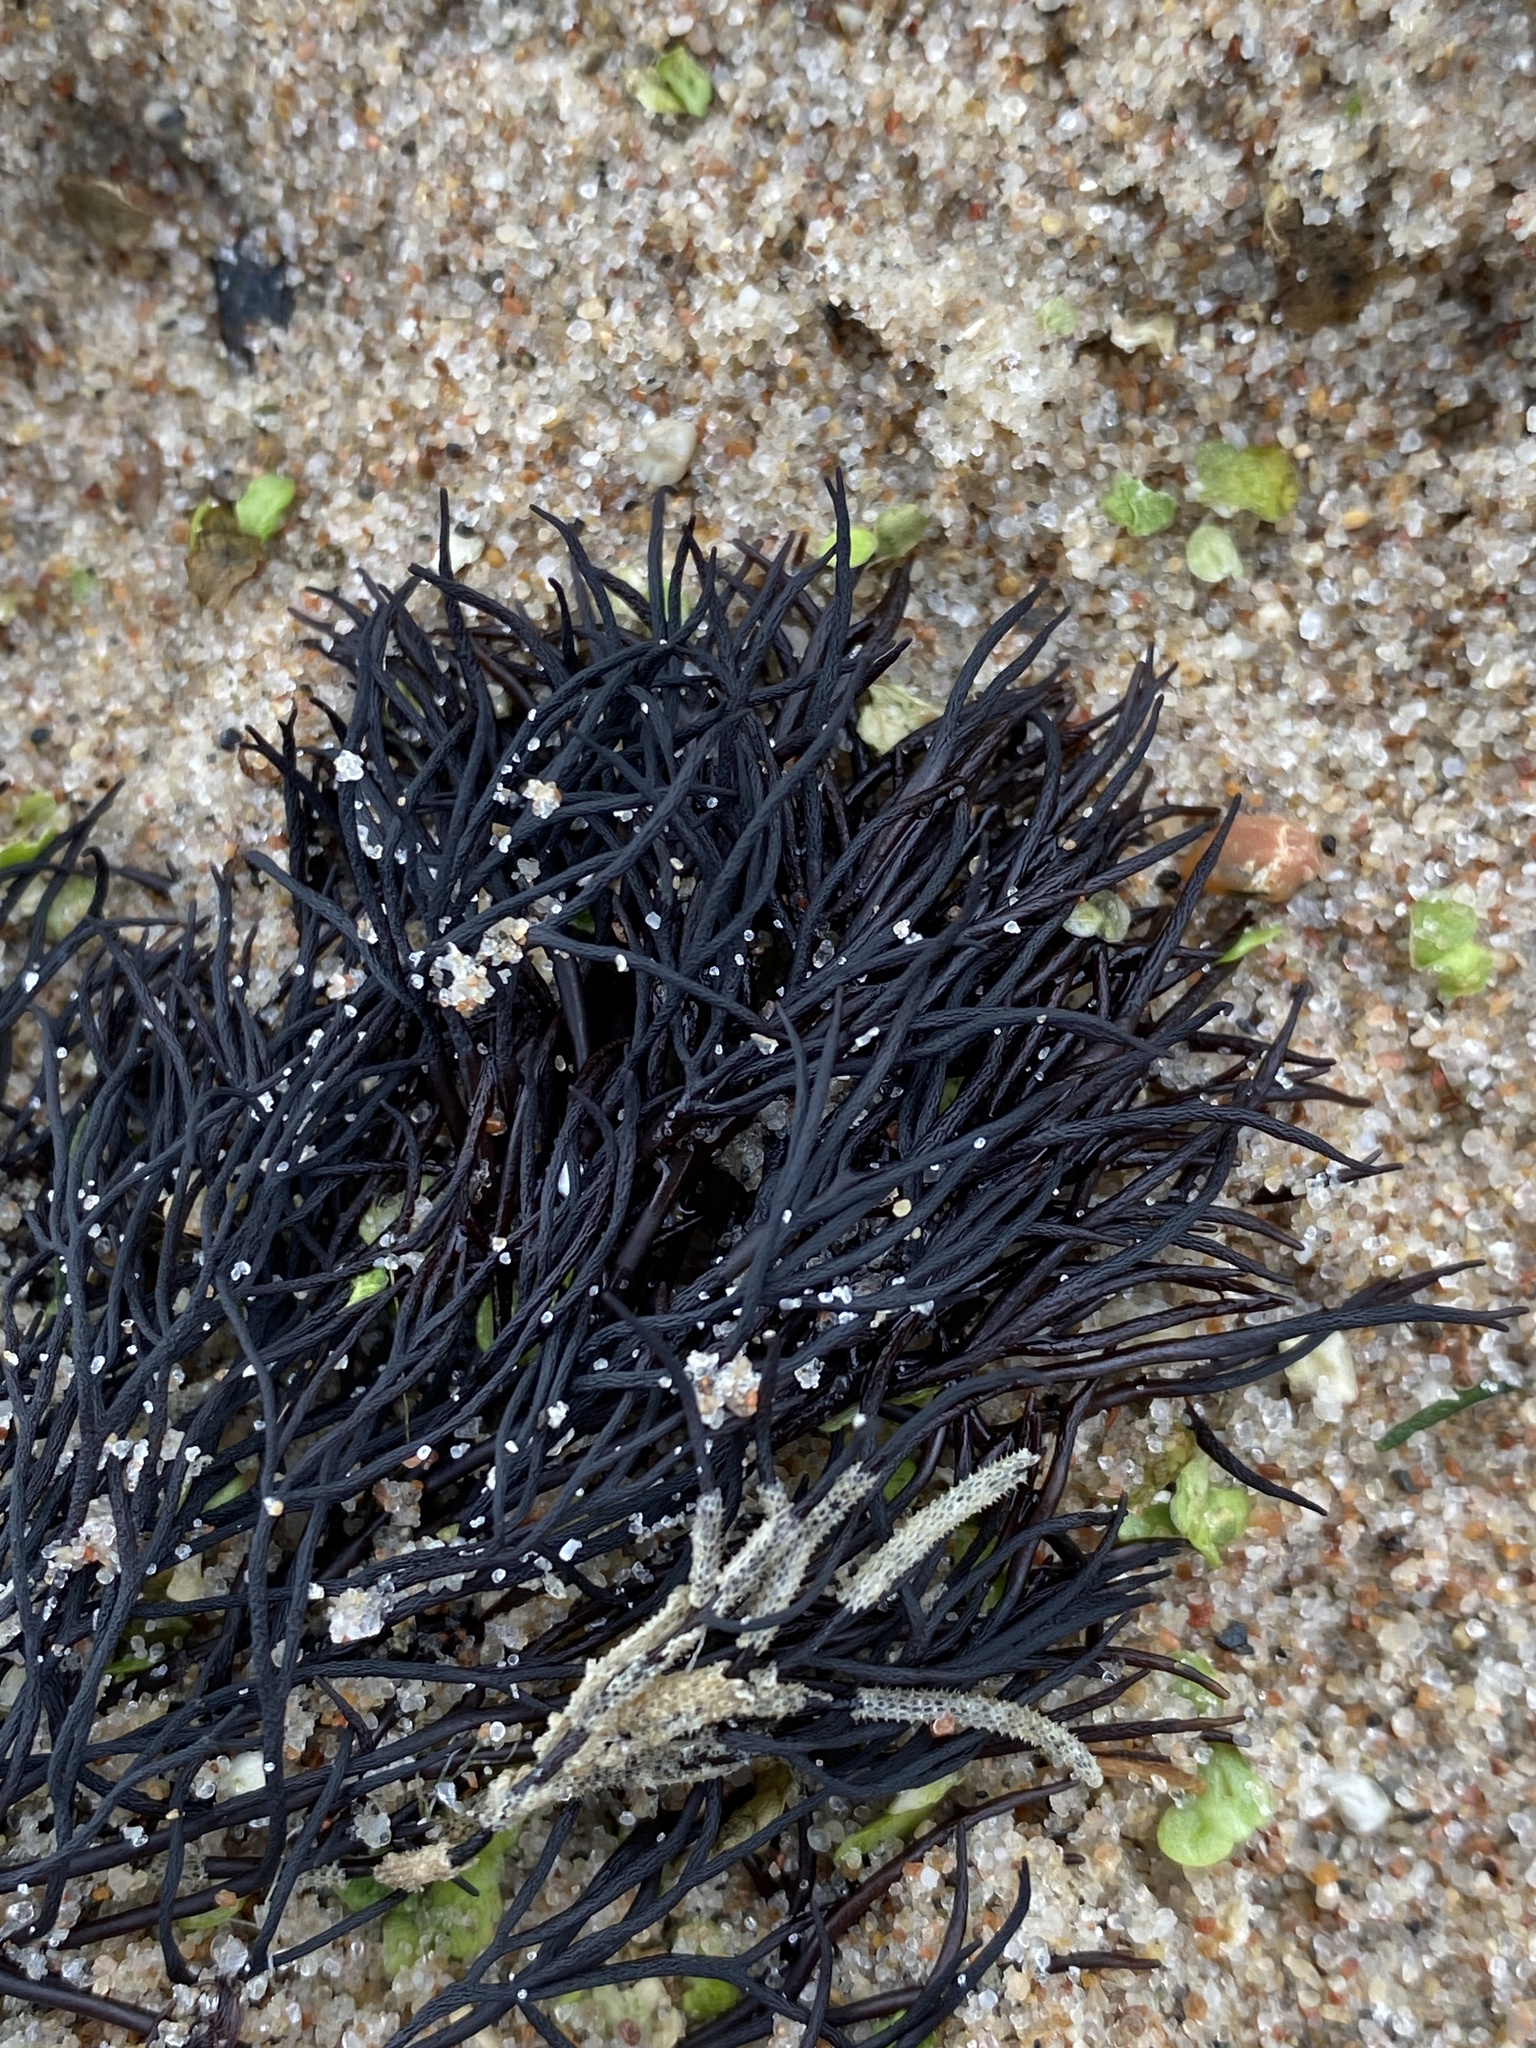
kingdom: Plantae
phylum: Rhodophyta
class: Florideophyceae
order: Gigartinales
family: Furcellariaceae
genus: Furcellaria
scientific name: Furcellaria lumbricalis
